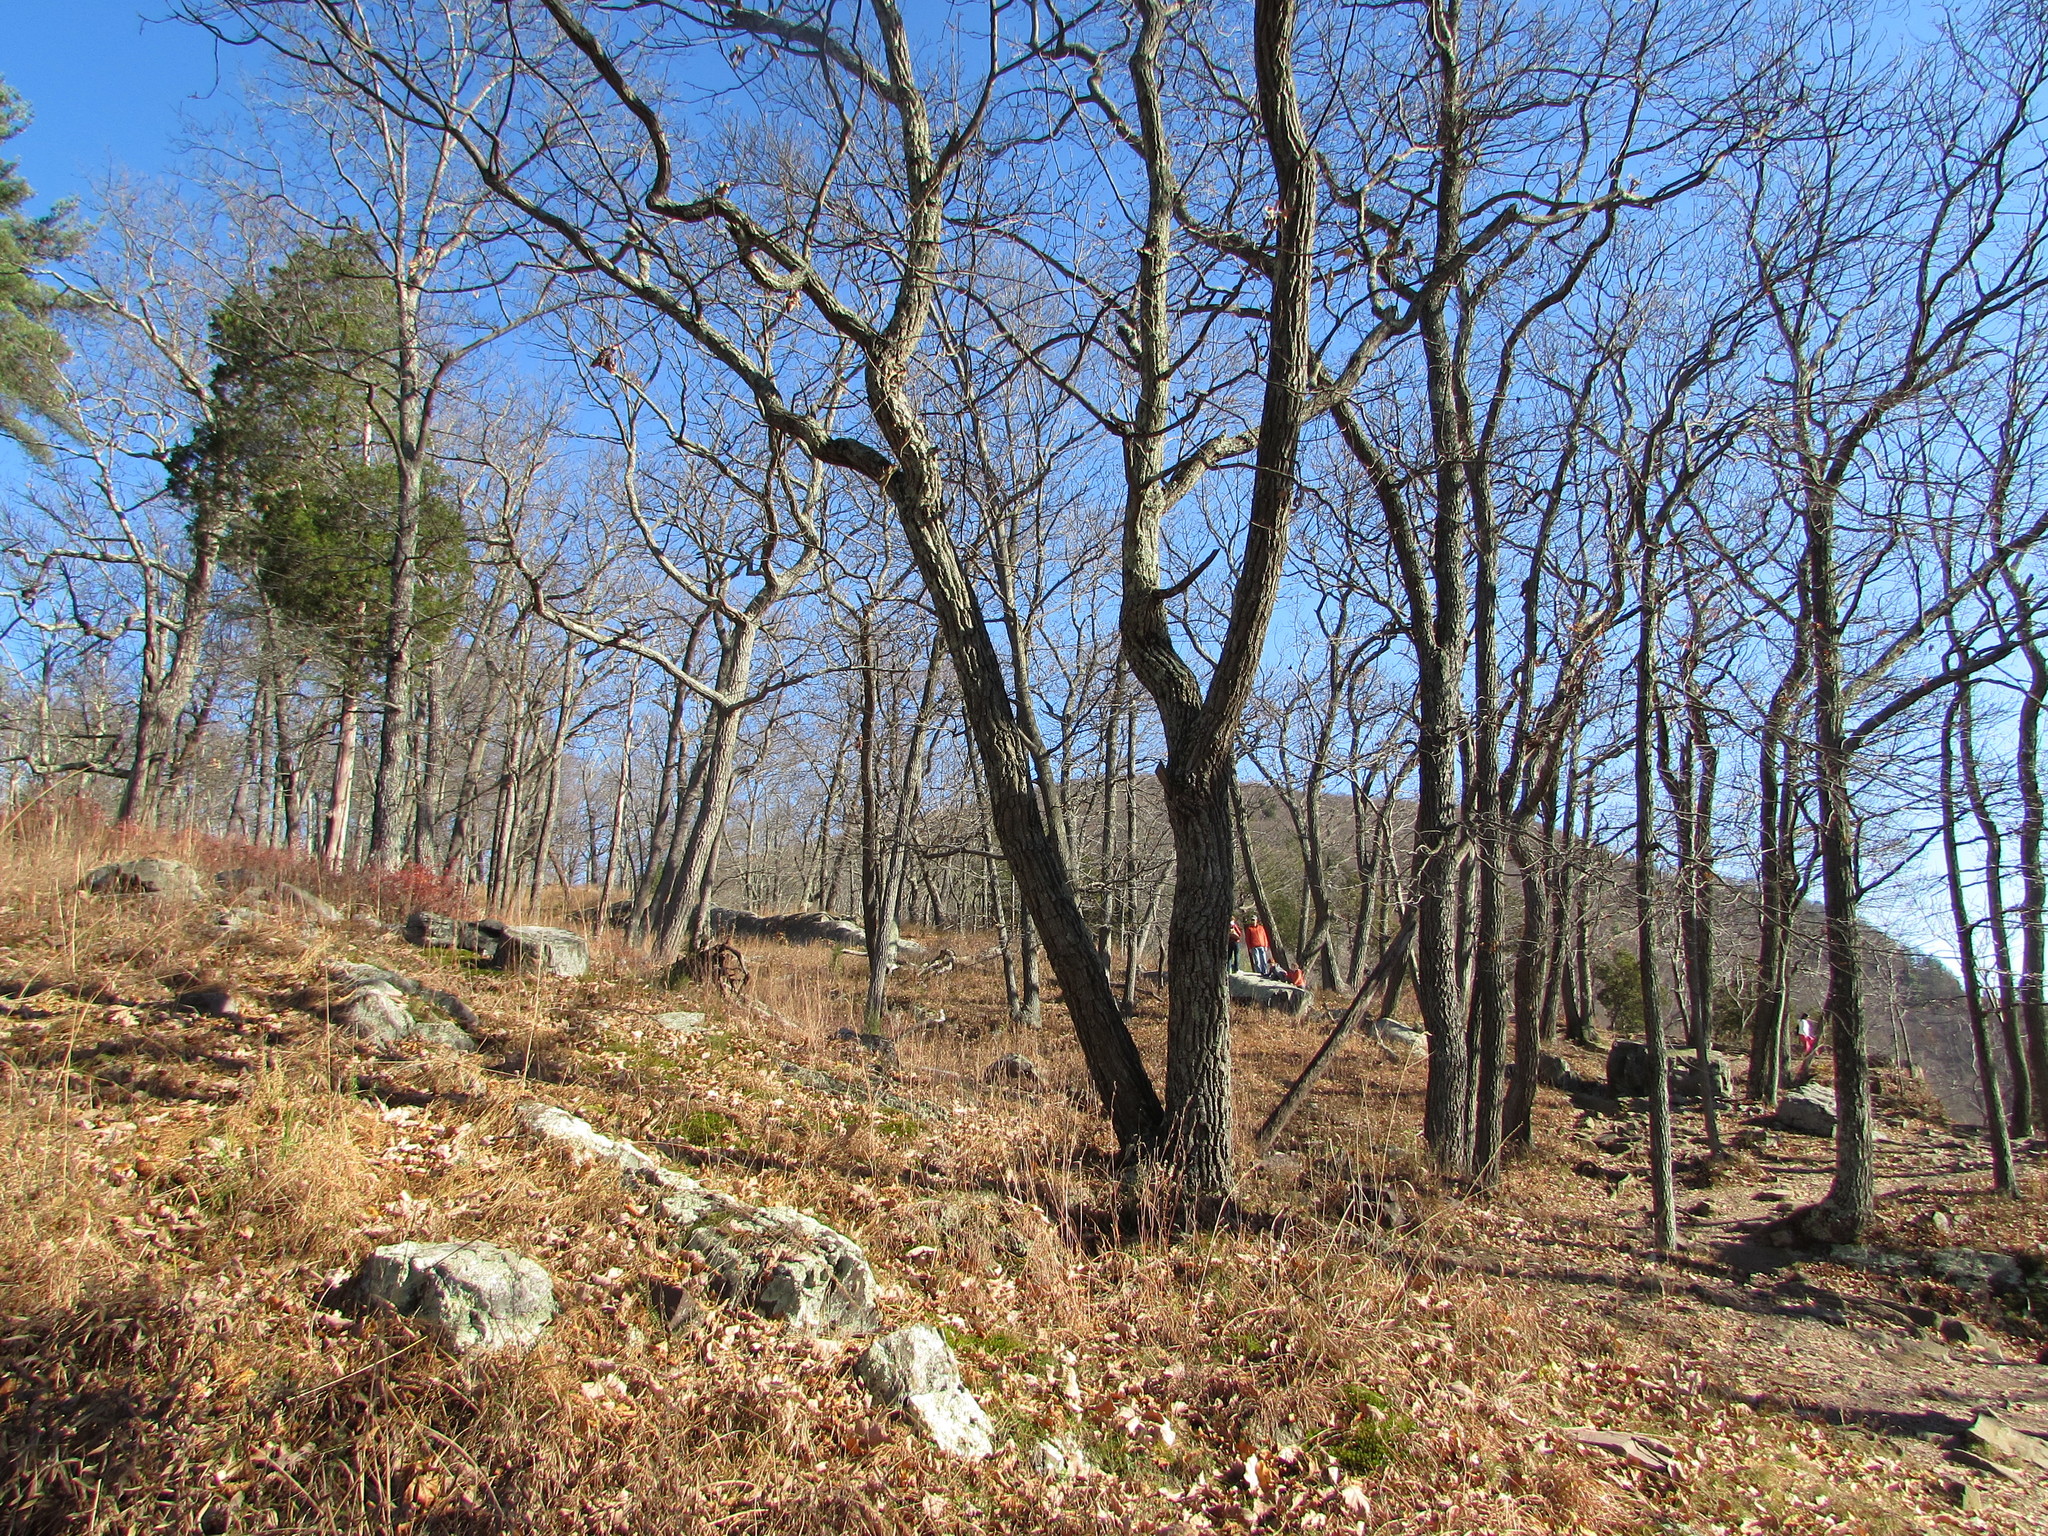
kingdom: Plantae
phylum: Tracheophyta
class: Magnoliopsida
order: Fagales
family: Fagaceae
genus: Quercus
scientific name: Quercus montana
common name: Chestnut oak
